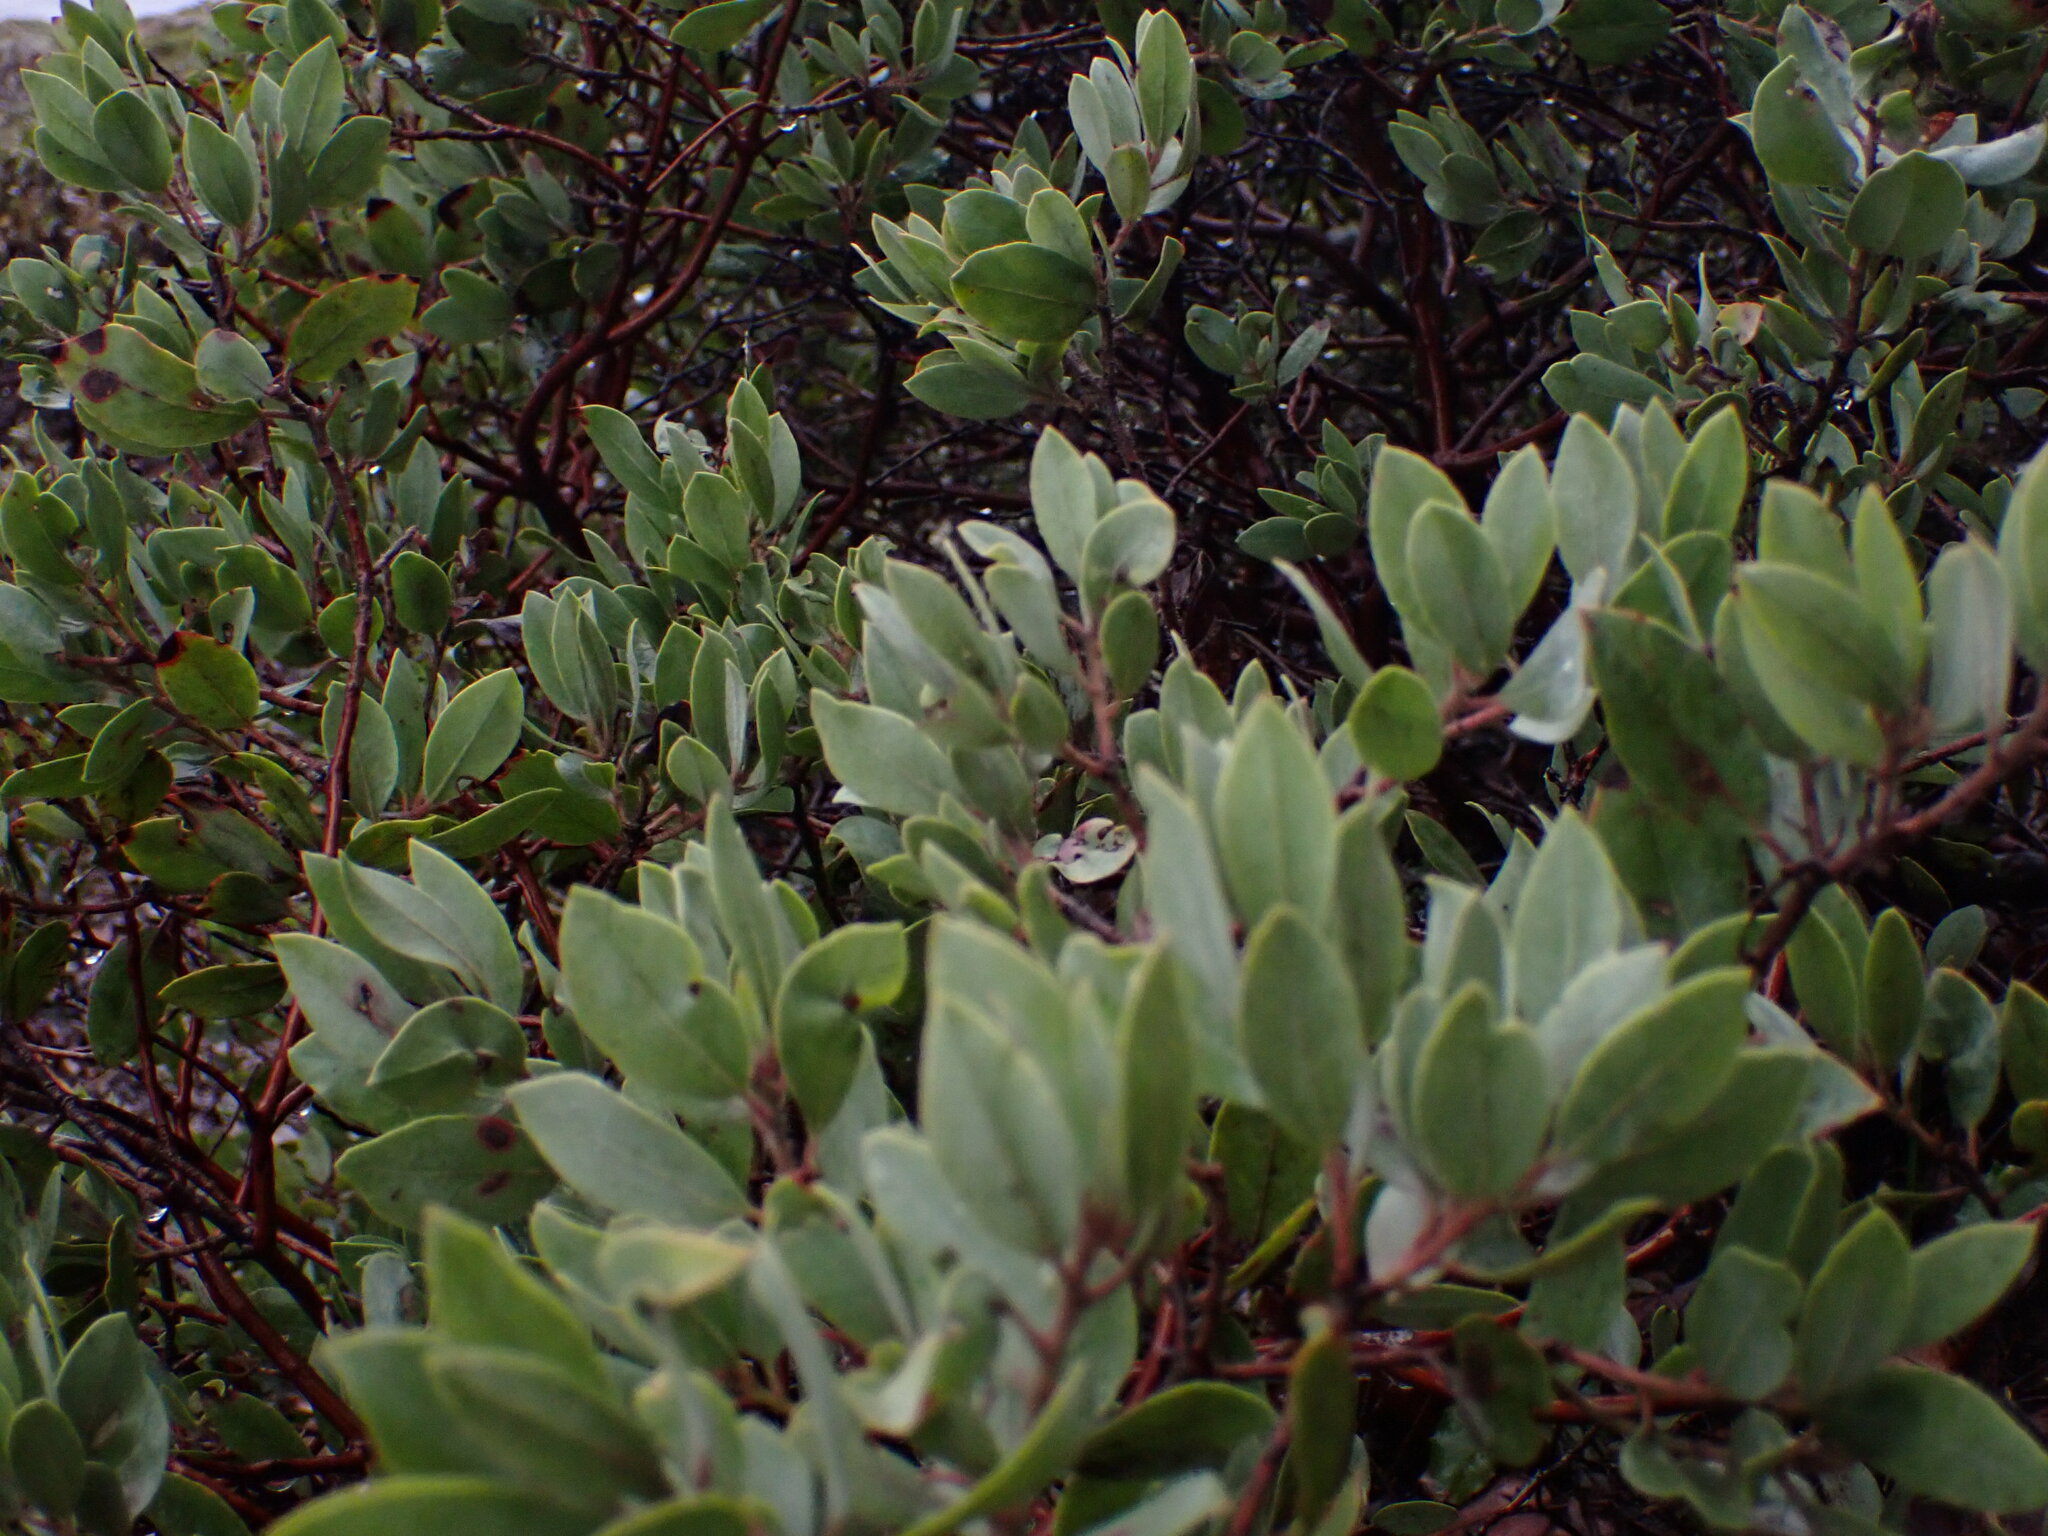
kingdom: Plantae
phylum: Tracheophyta
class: Magnoliopsida
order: Ericales
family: Ericaceae
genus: Arctostaphylos
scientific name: Arctostaphylos columbiana
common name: Bristly bearberry
